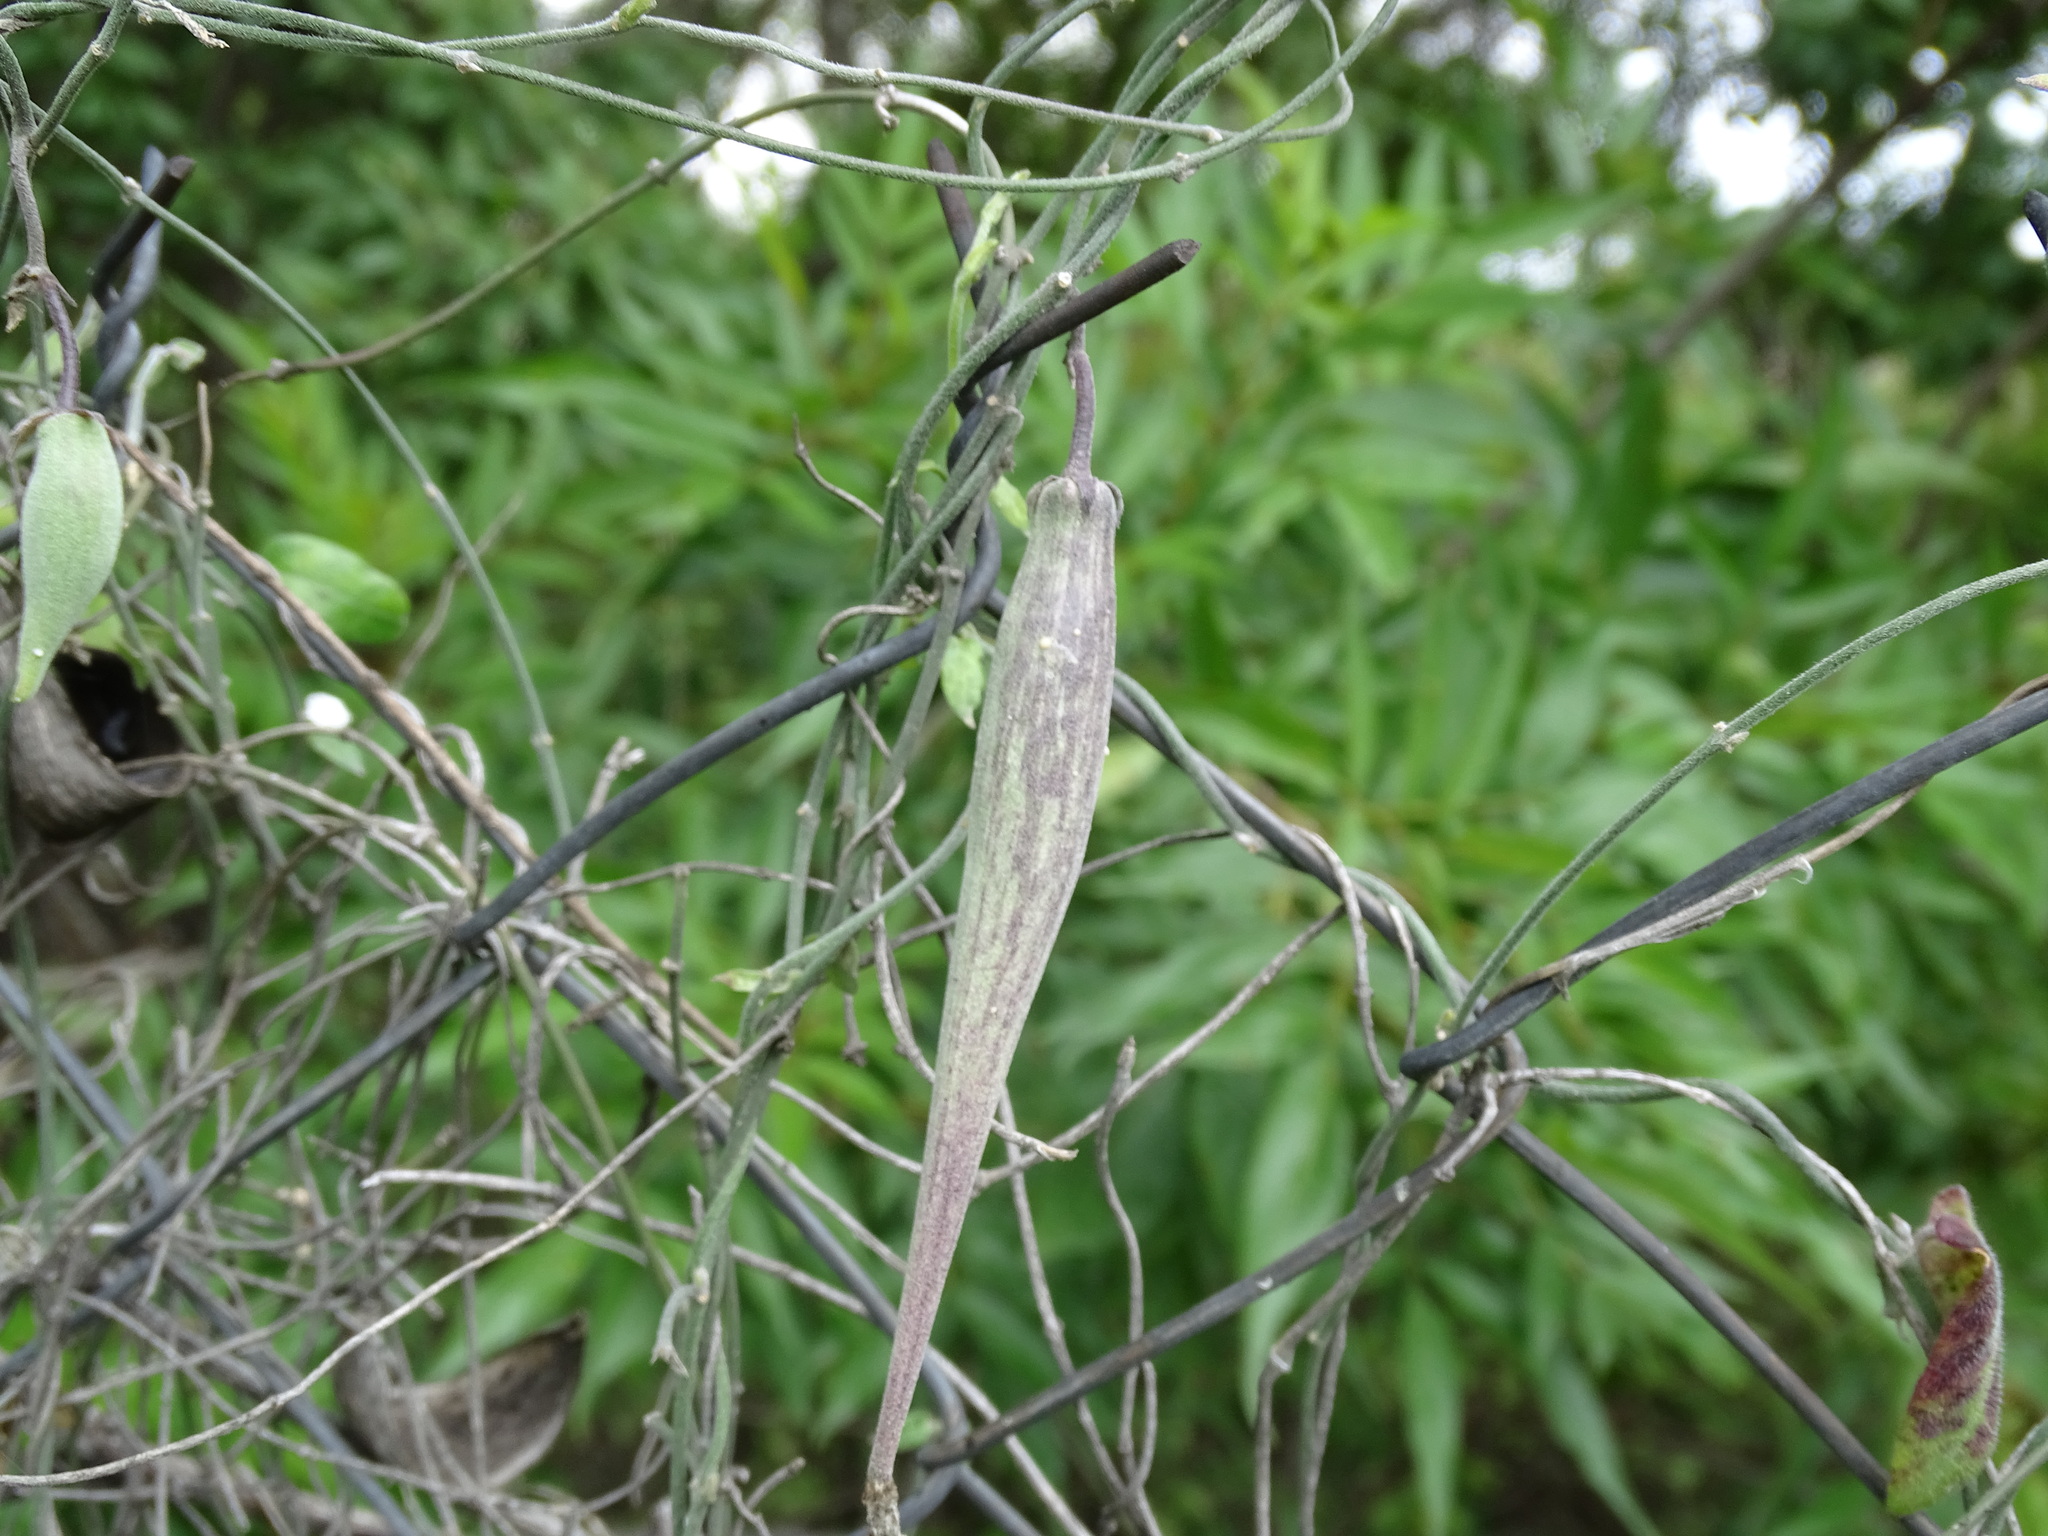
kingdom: Plantae
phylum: Tracheophyta
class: Magnoliopsida
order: Gentianales
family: Apocynaceae
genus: Funastrum
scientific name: Funastrum elegans
